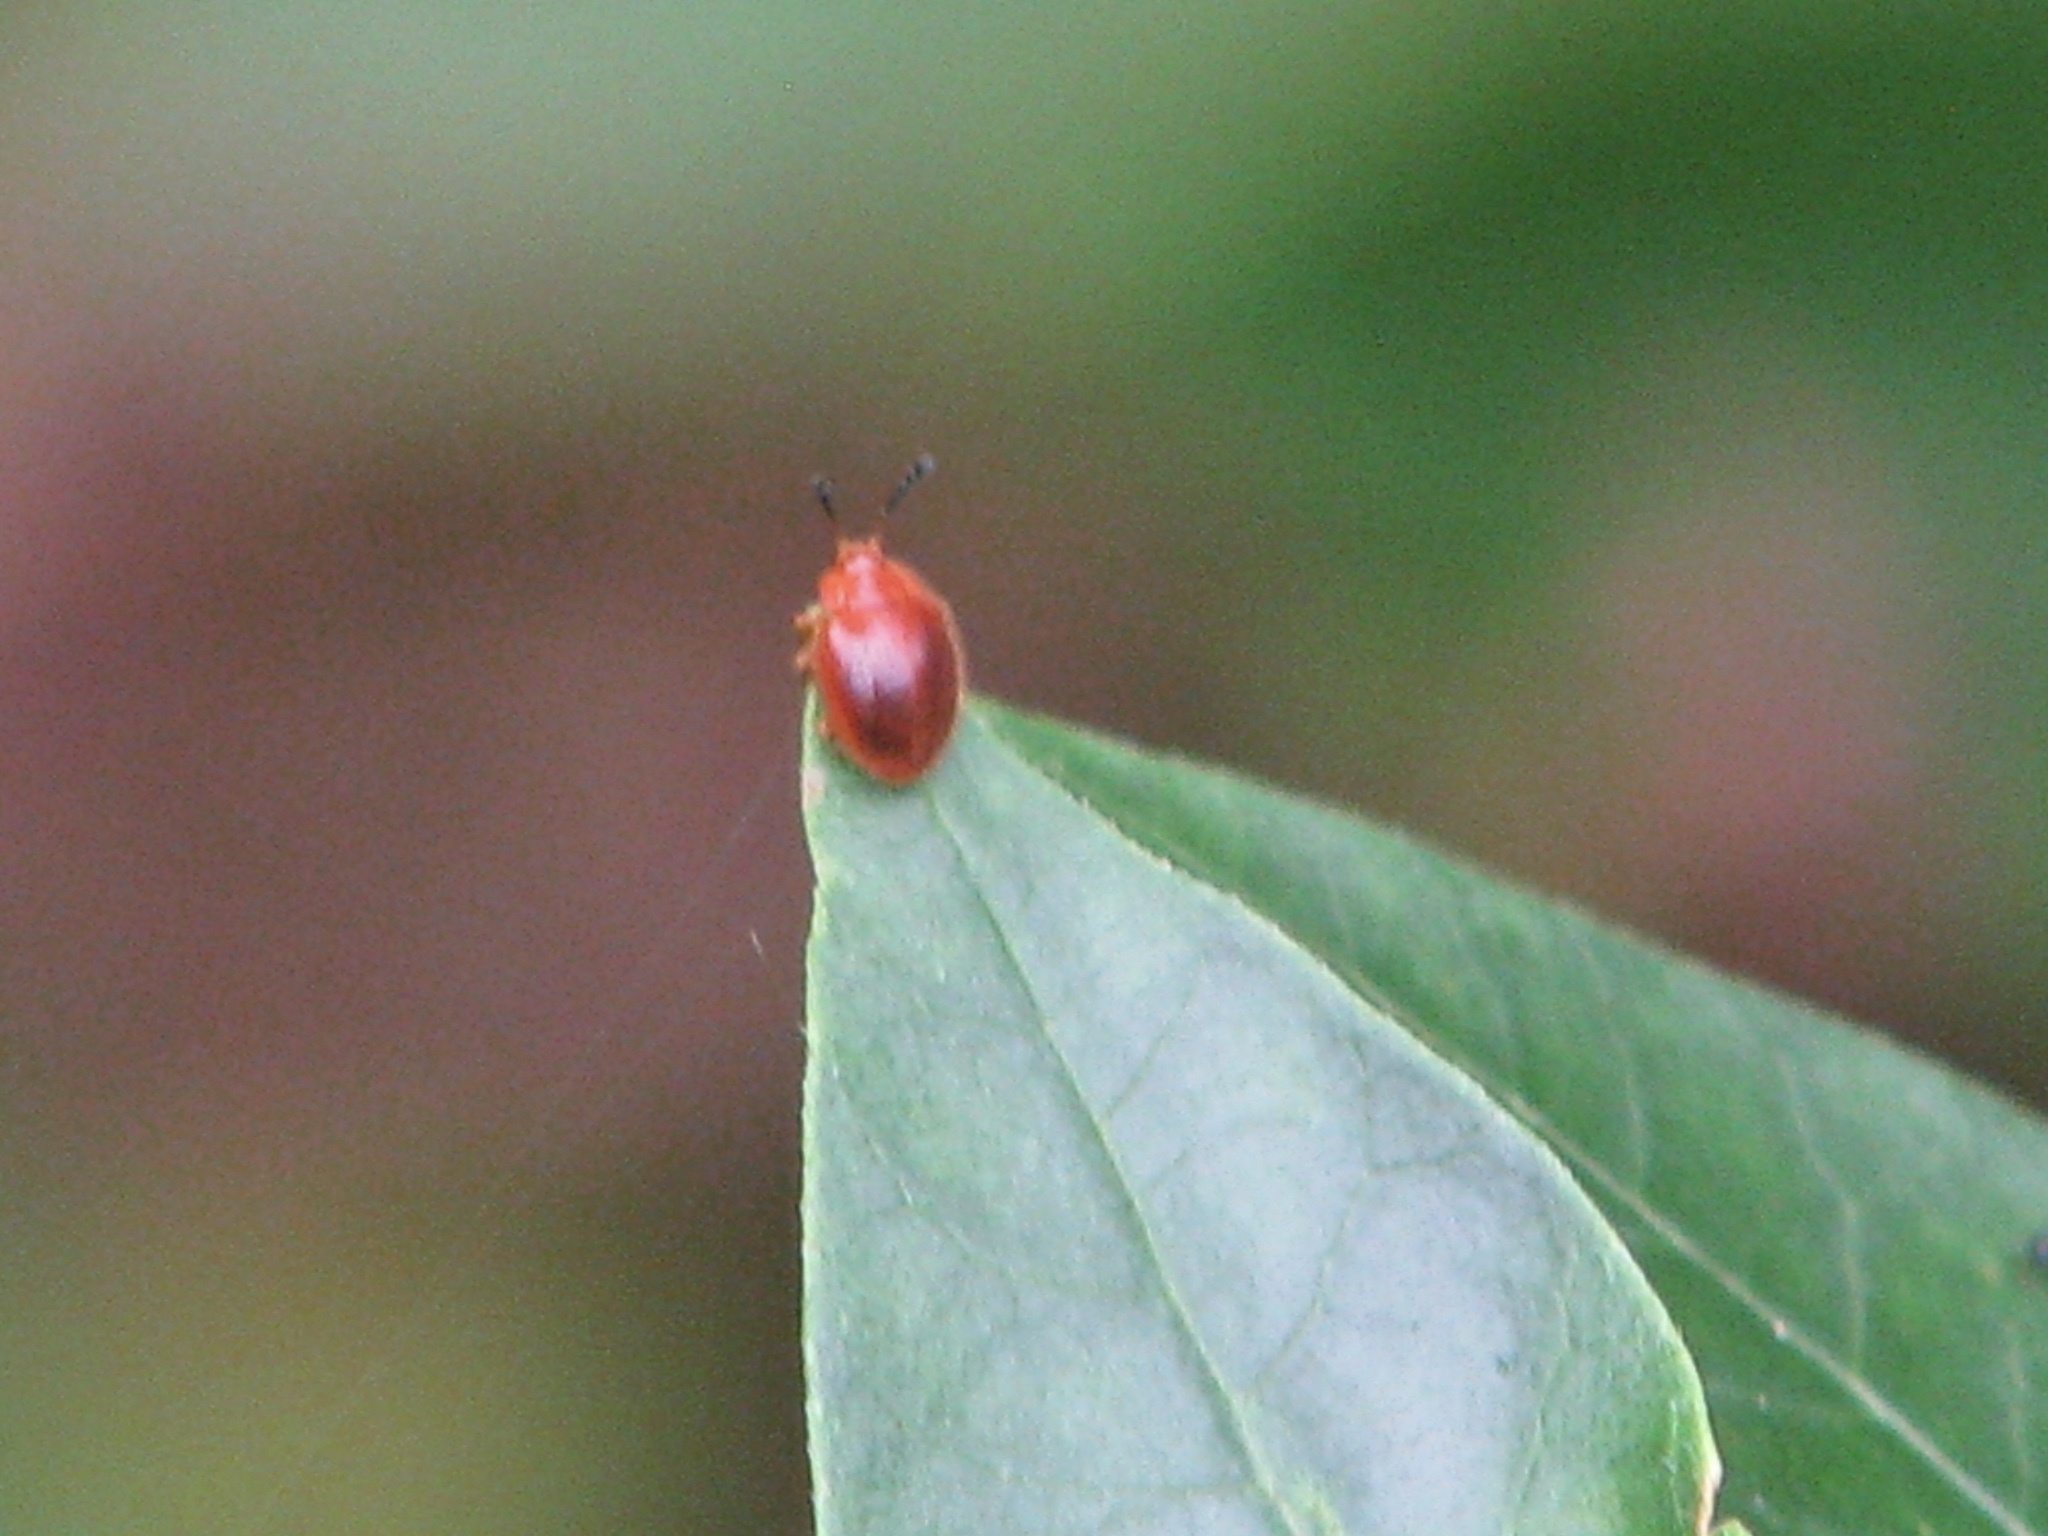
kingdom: Animalia
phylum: Arthropoda
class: Insecta
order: Coleoptera
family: Endomychidae
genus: Stenotarsus
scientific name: Stenotarsus blatchleyi
